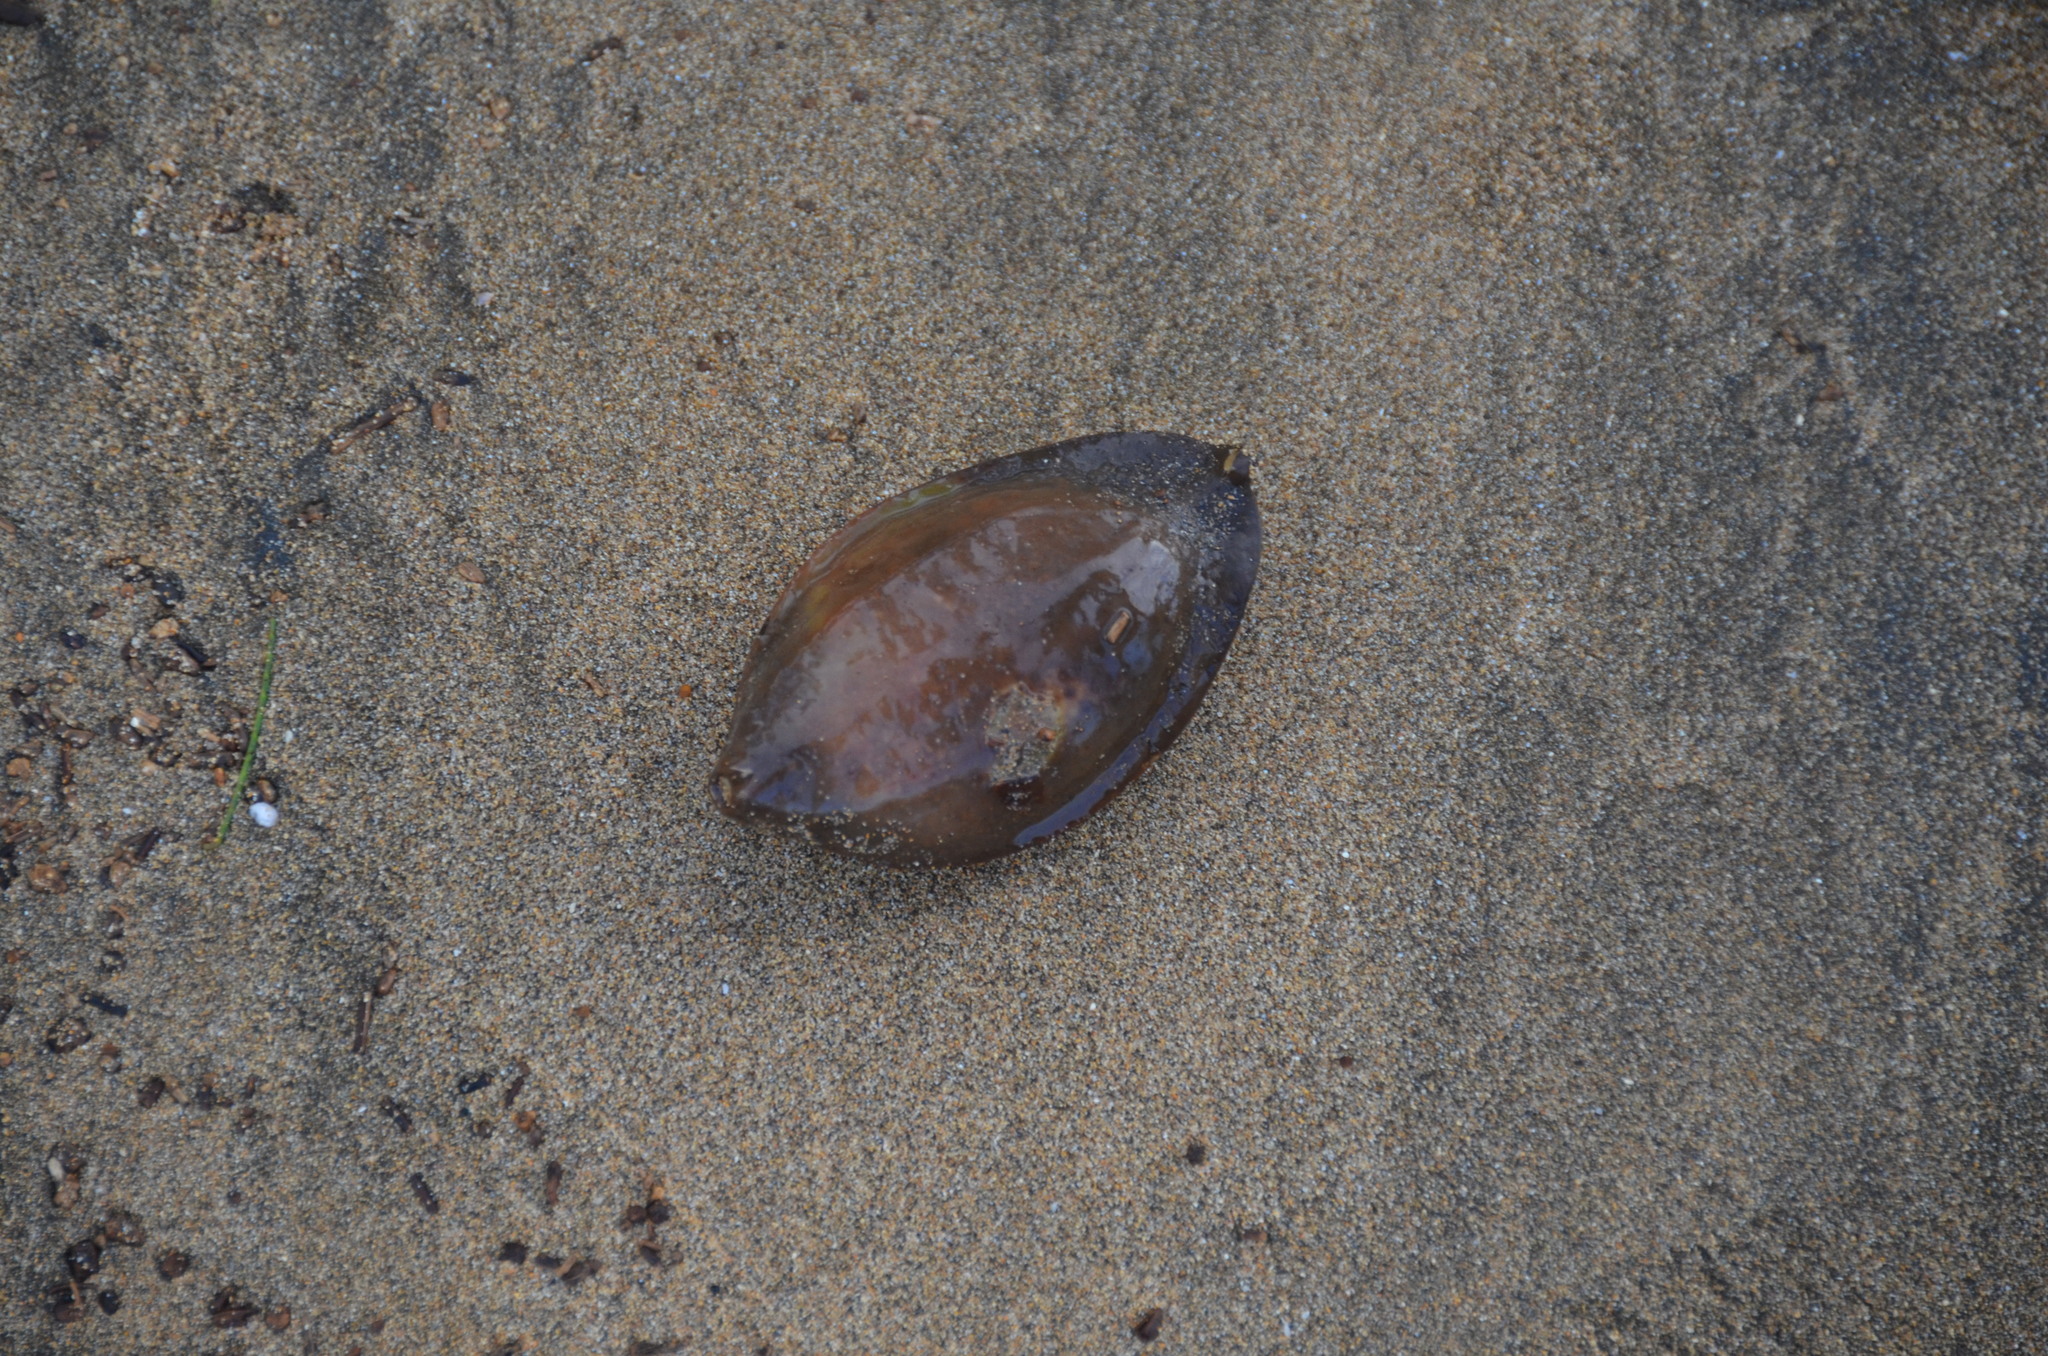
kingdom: Plantae
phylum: Tracheophyta
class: Magnoliopsida
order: Myrtales
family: Combretaceae
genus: Terminalia
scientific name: Terminalia catappa
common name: Tropical almond
